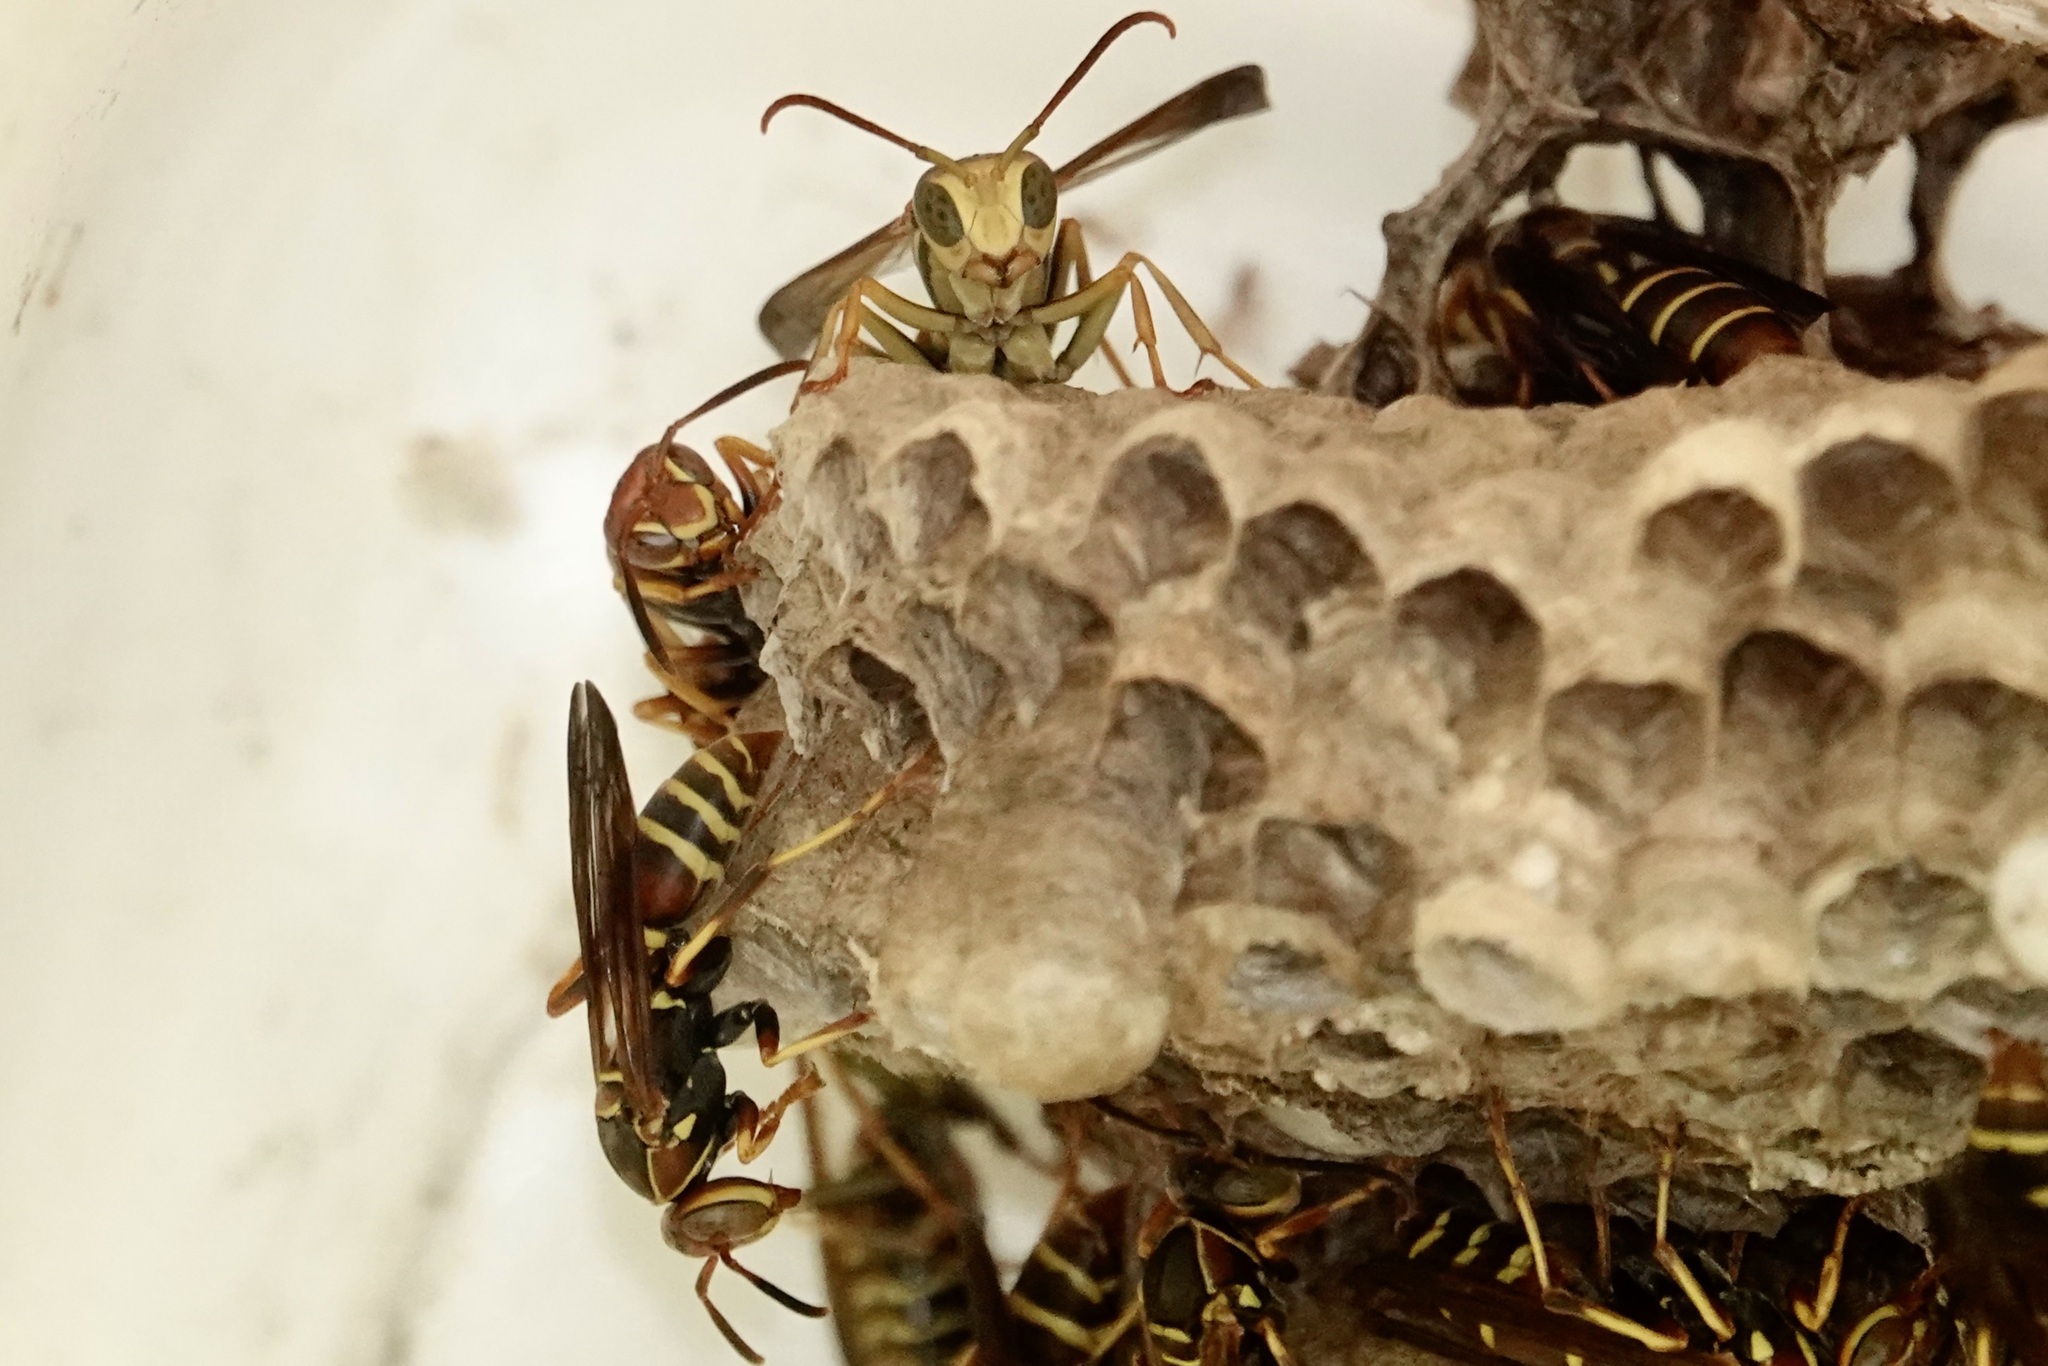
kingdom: Animalia
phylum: Arthropoda
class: Insecta
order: Hymenoptera
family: Eumenidae
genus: Polistes
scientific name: Polistes dorsalis
